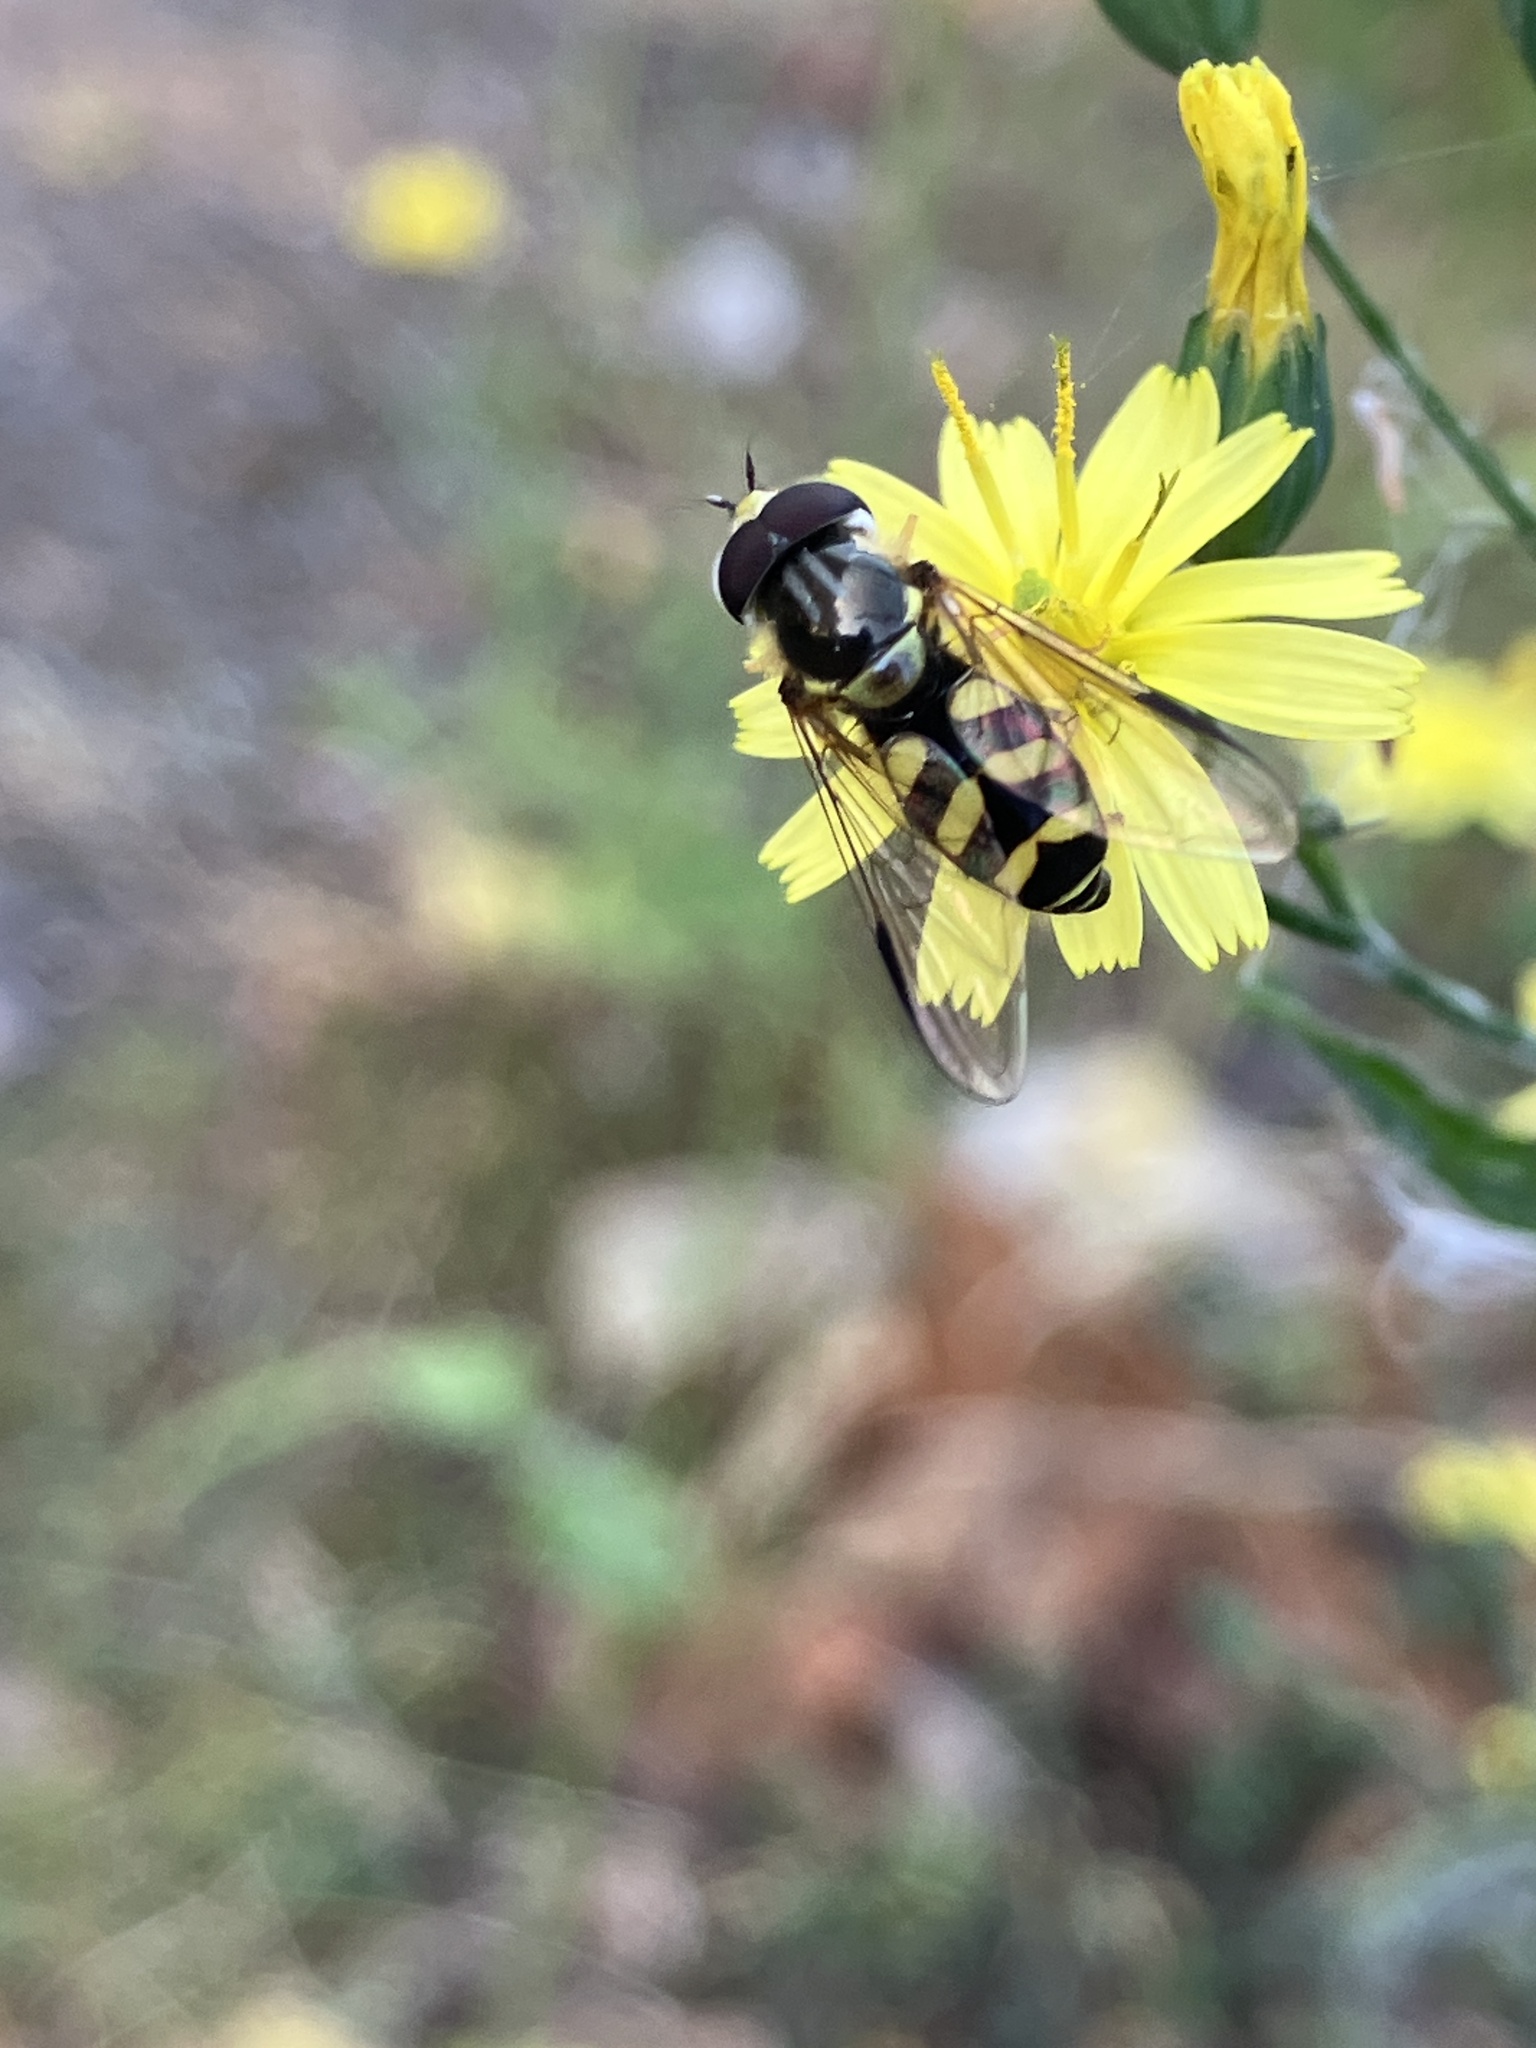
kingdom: Animalia
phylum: Arthropoda
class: Insecta
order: Diptera
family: Syrphidae
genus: Dasysyrphus
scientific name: Dasysyrphus albostriatus
